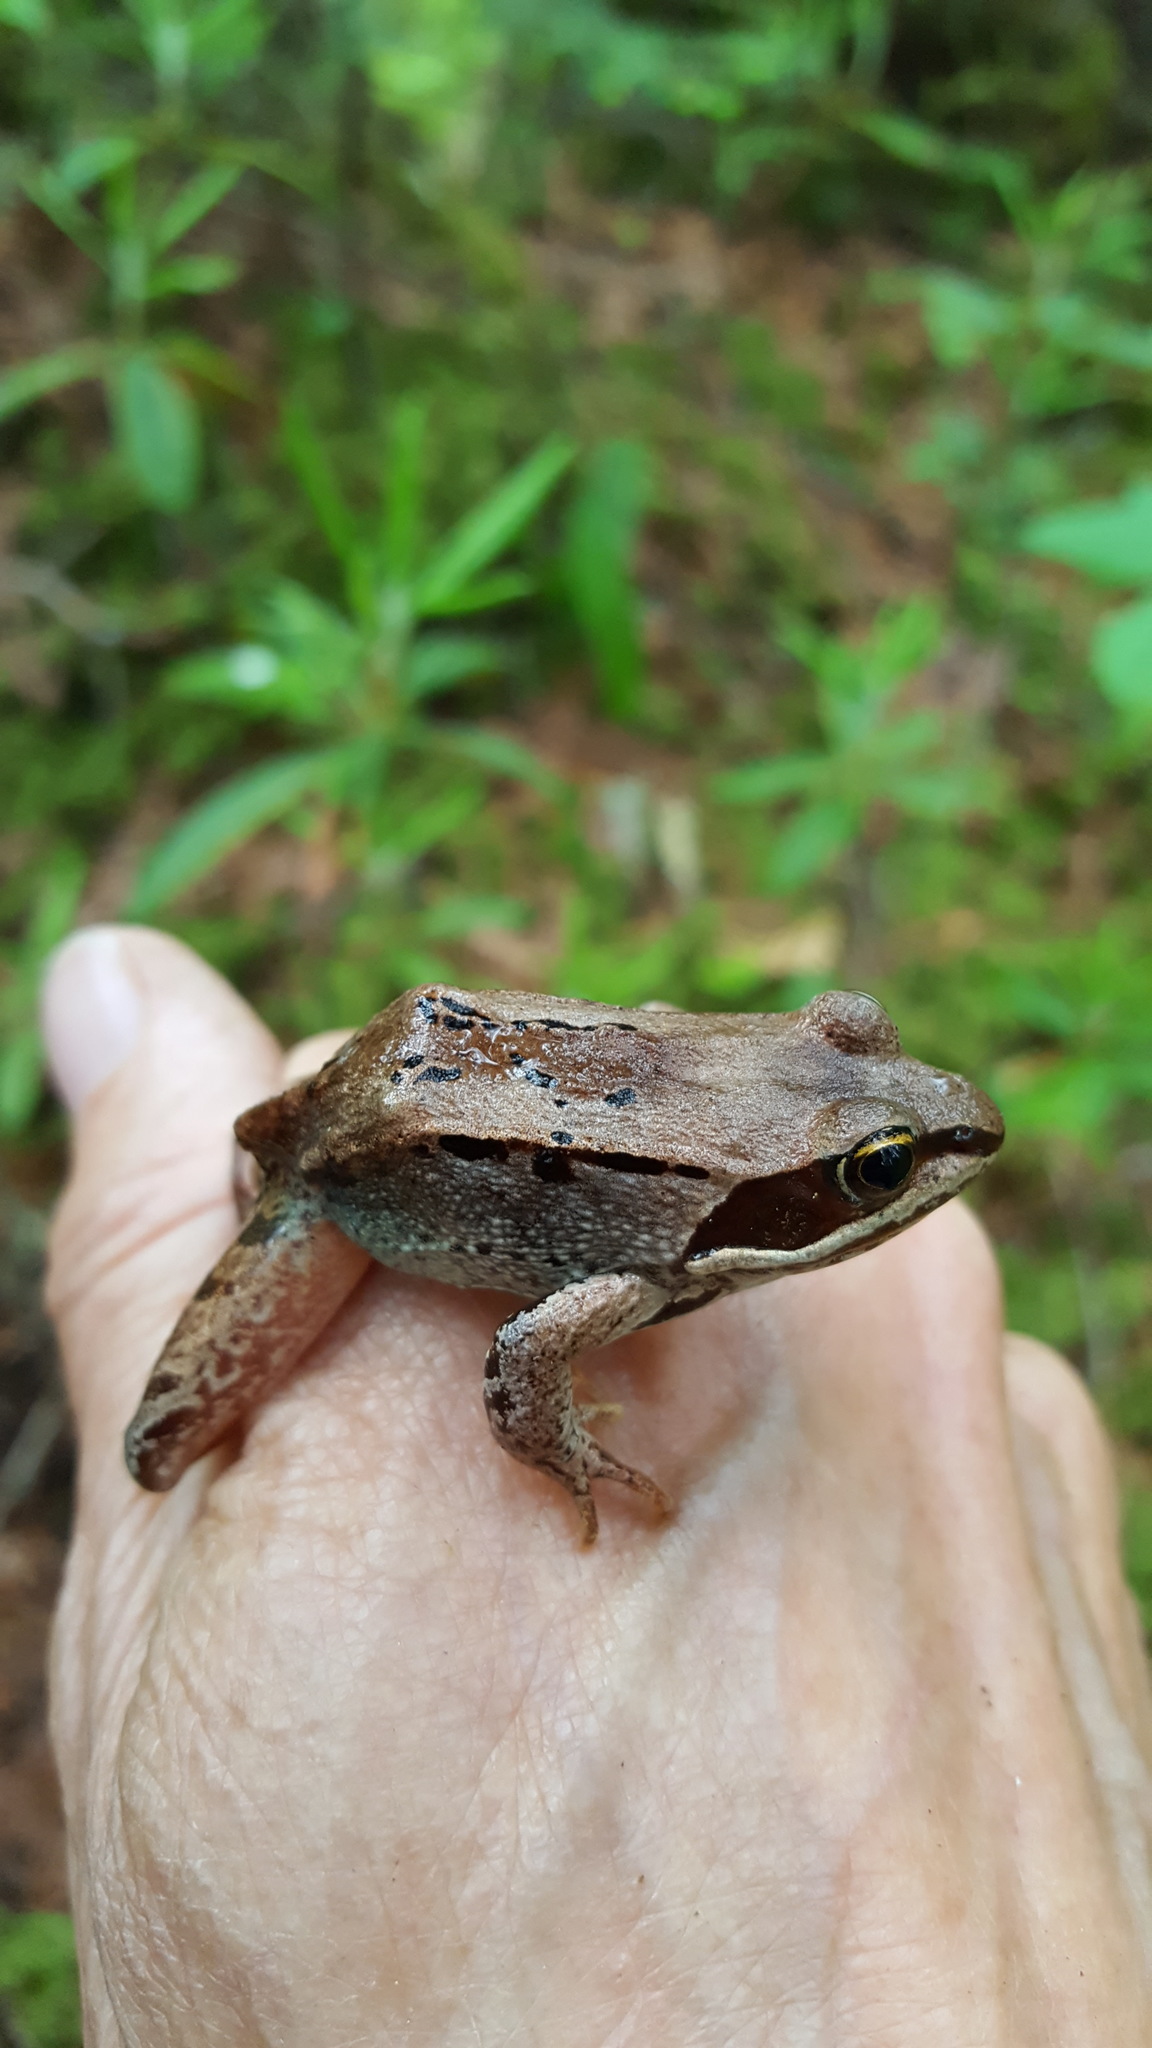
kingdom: Animalia
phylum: Chordata
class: Amphibia
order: Anura
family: Ranidae
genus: Lithobates
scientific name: Lithobates sylvaticus
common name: Wood frog
